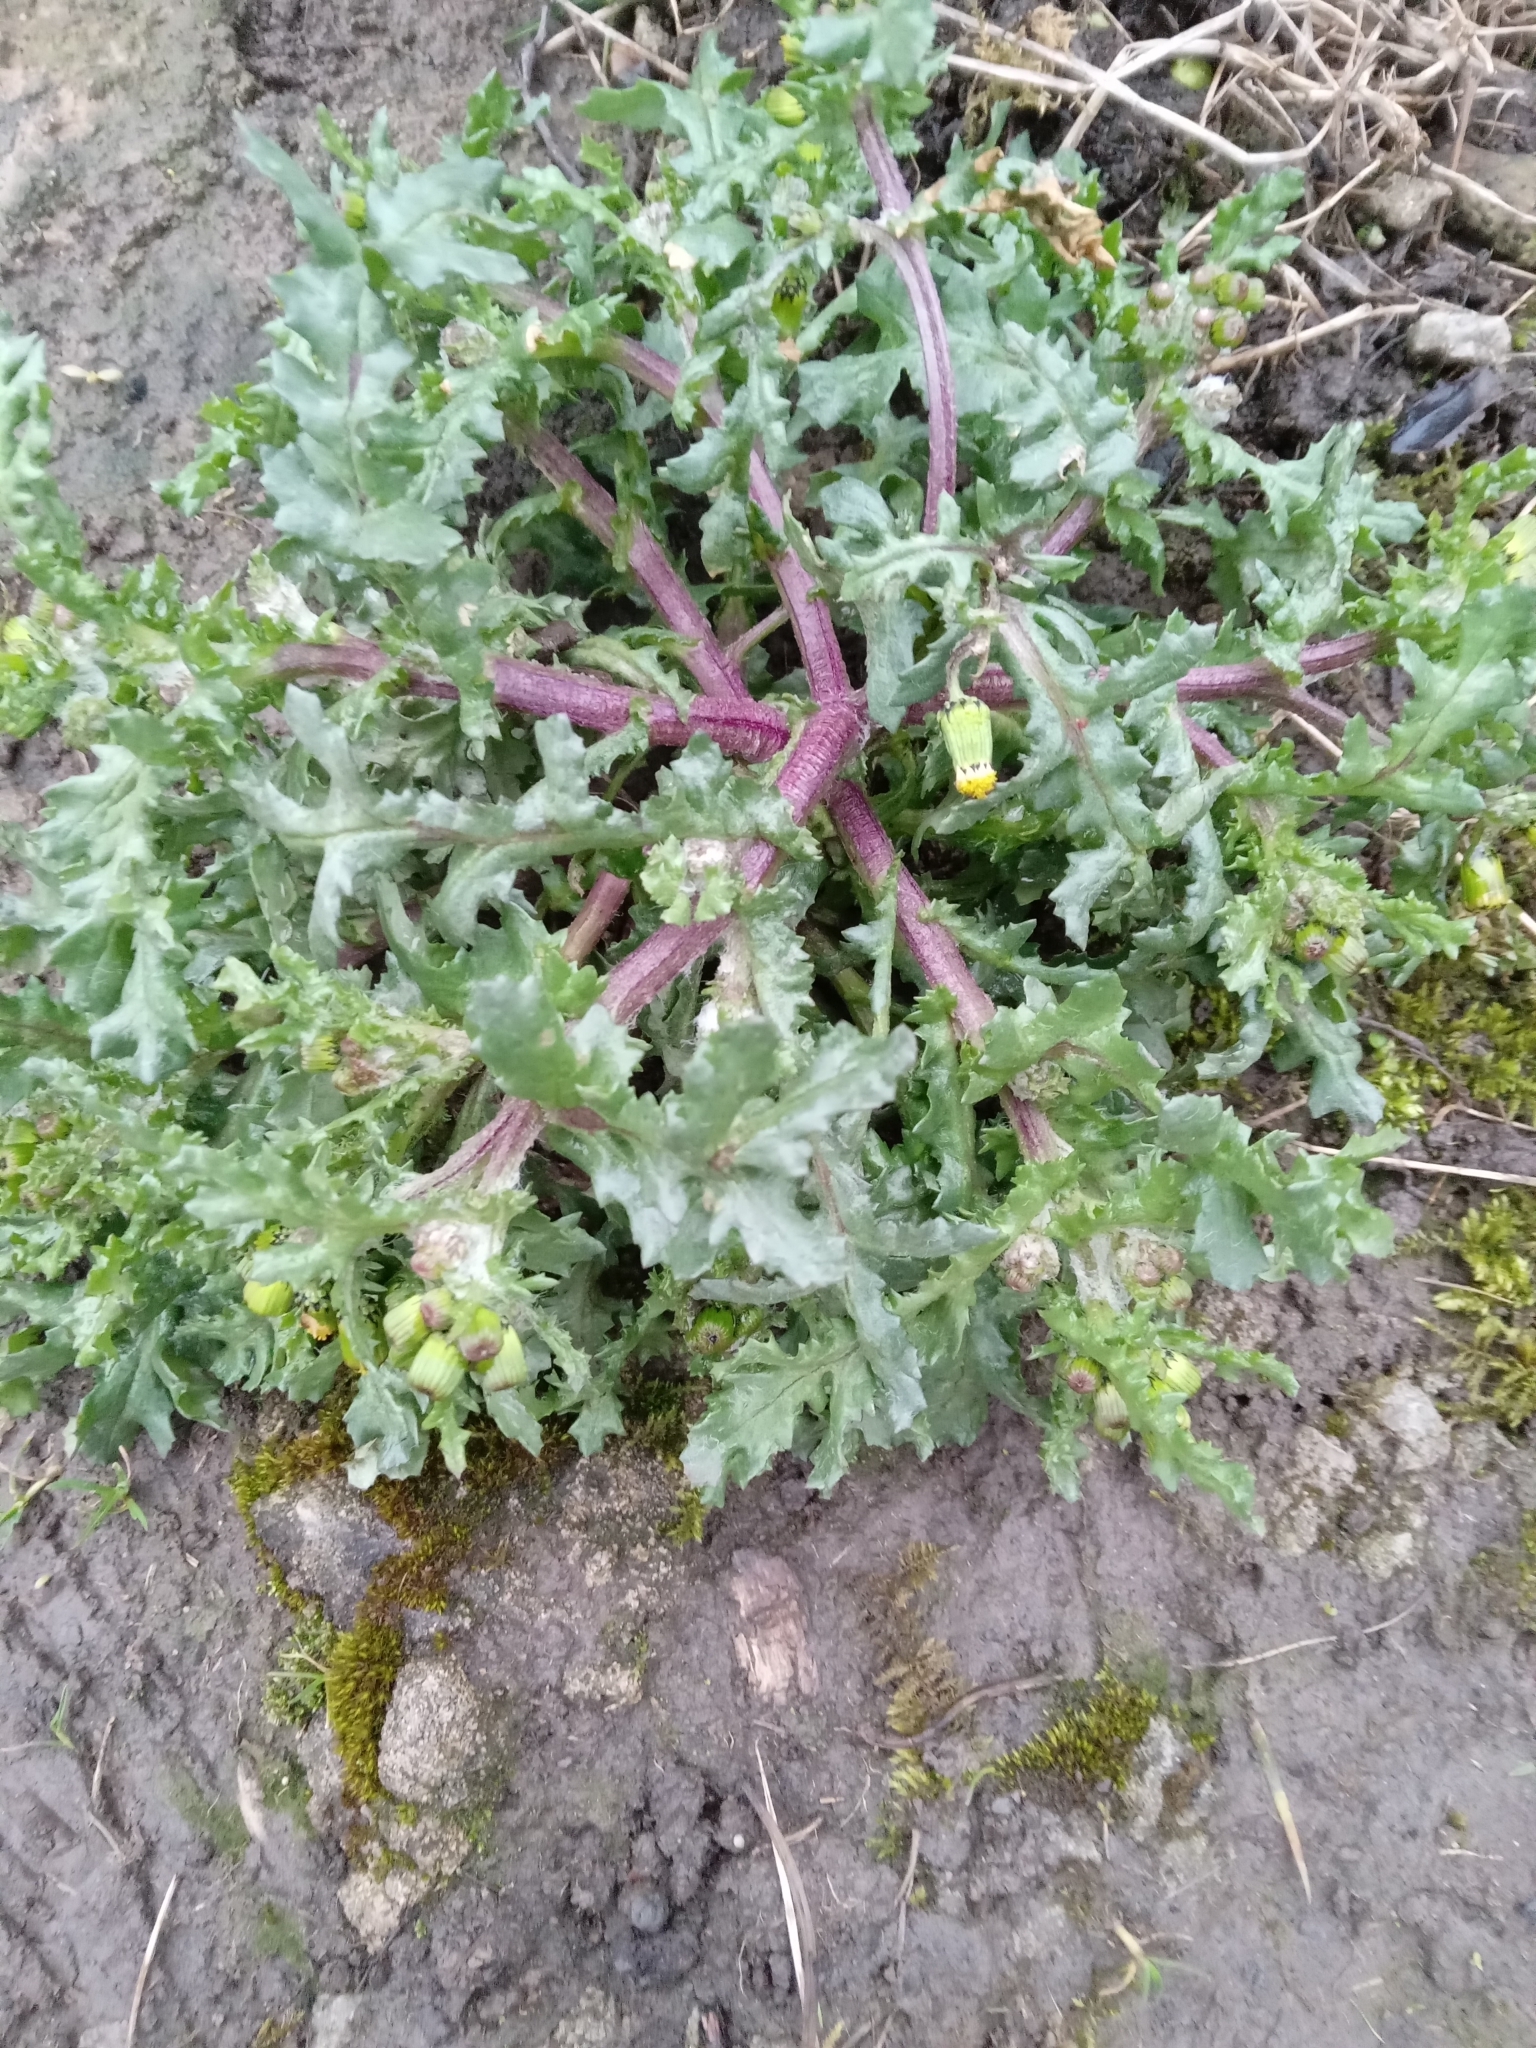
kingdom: Plantae
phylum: Tracheophyta
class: Magnoliopsida
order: Asterales
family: Asteraceae
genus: Senecio
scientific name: Senecio vulgaris
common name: Old-man-in-the-spring
